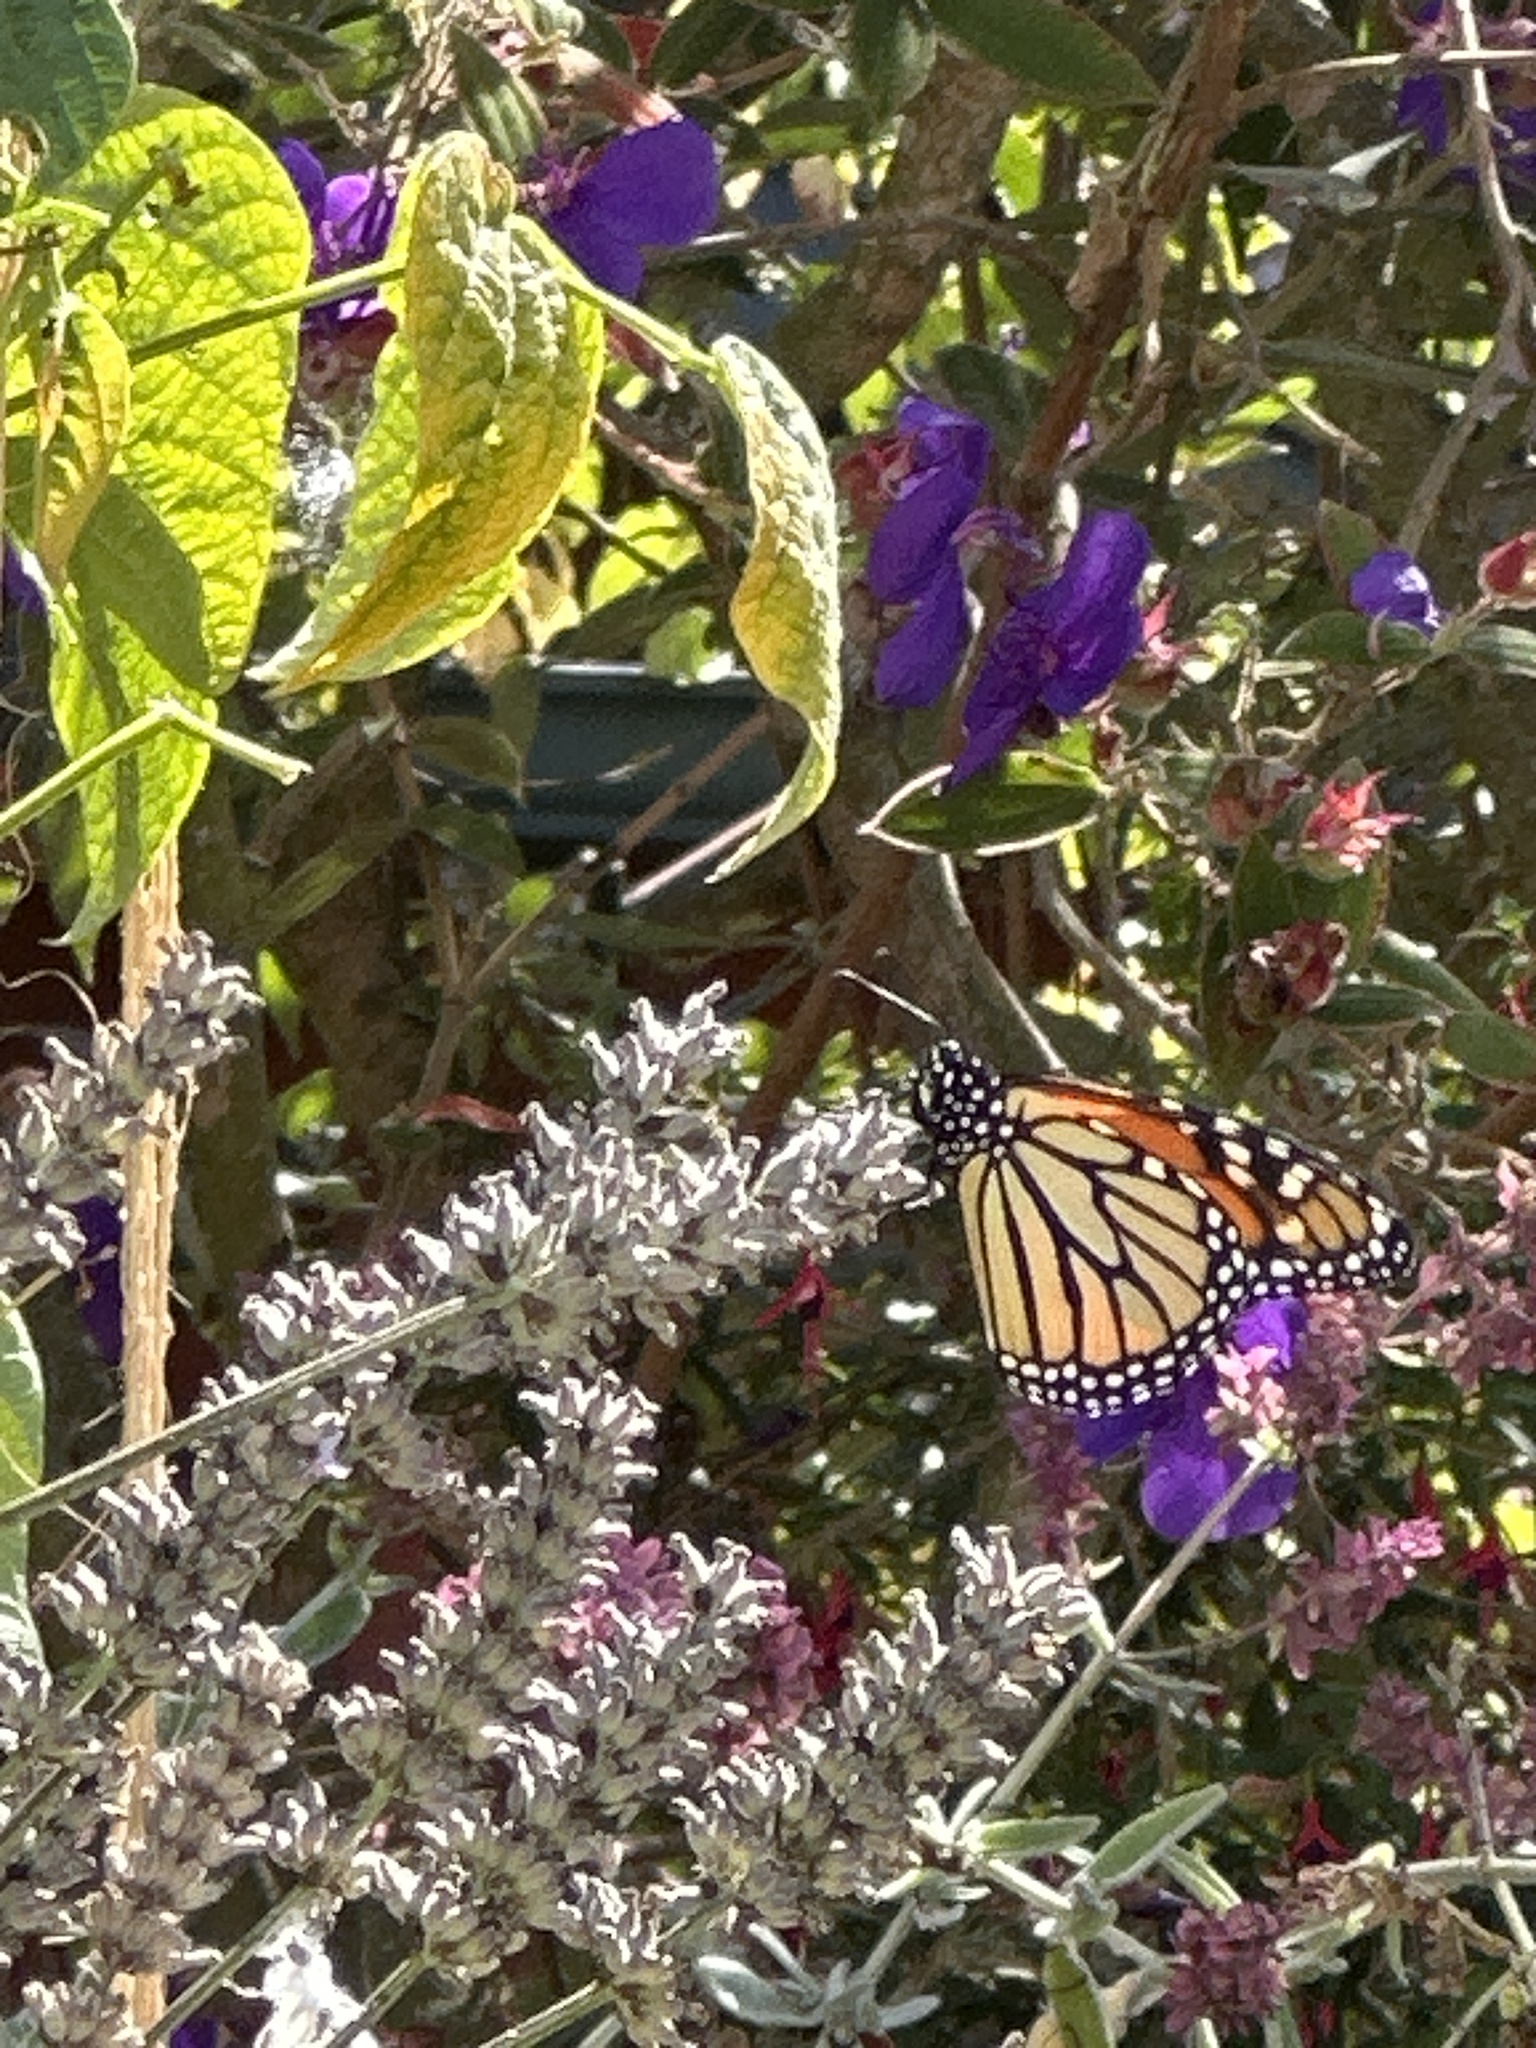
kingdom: Animalia
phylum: Arthropoda
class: Insecta
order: Lepidoptera
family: Nymphalidae
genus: Danaus
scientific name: Danaus plexippus
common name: Monarch
